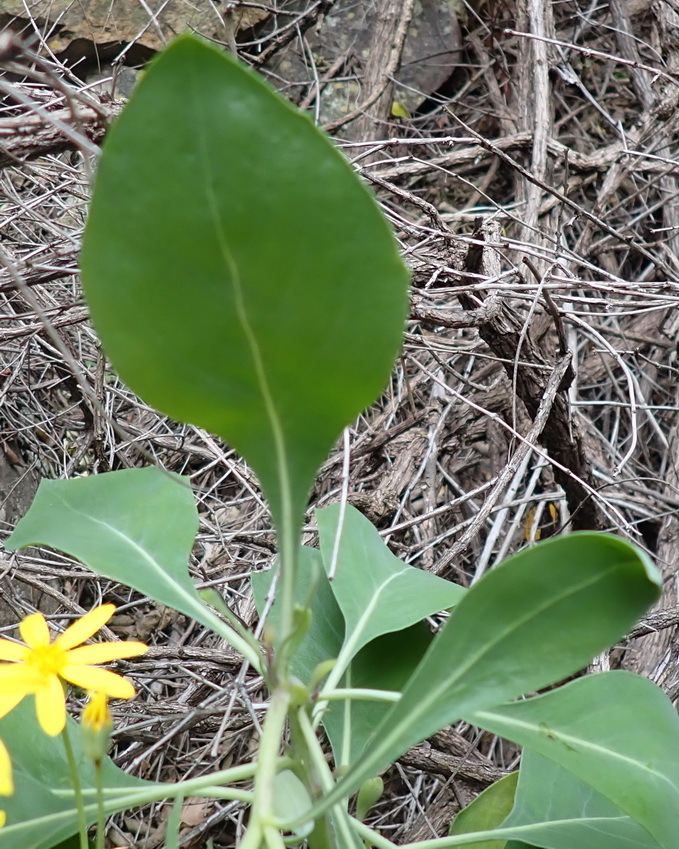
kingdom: Plantae
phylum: Tracheophyta
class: Magnoliopsida
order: Asterales
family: Asteraceae
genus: Othonna
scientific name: Othonna osteospermoides
